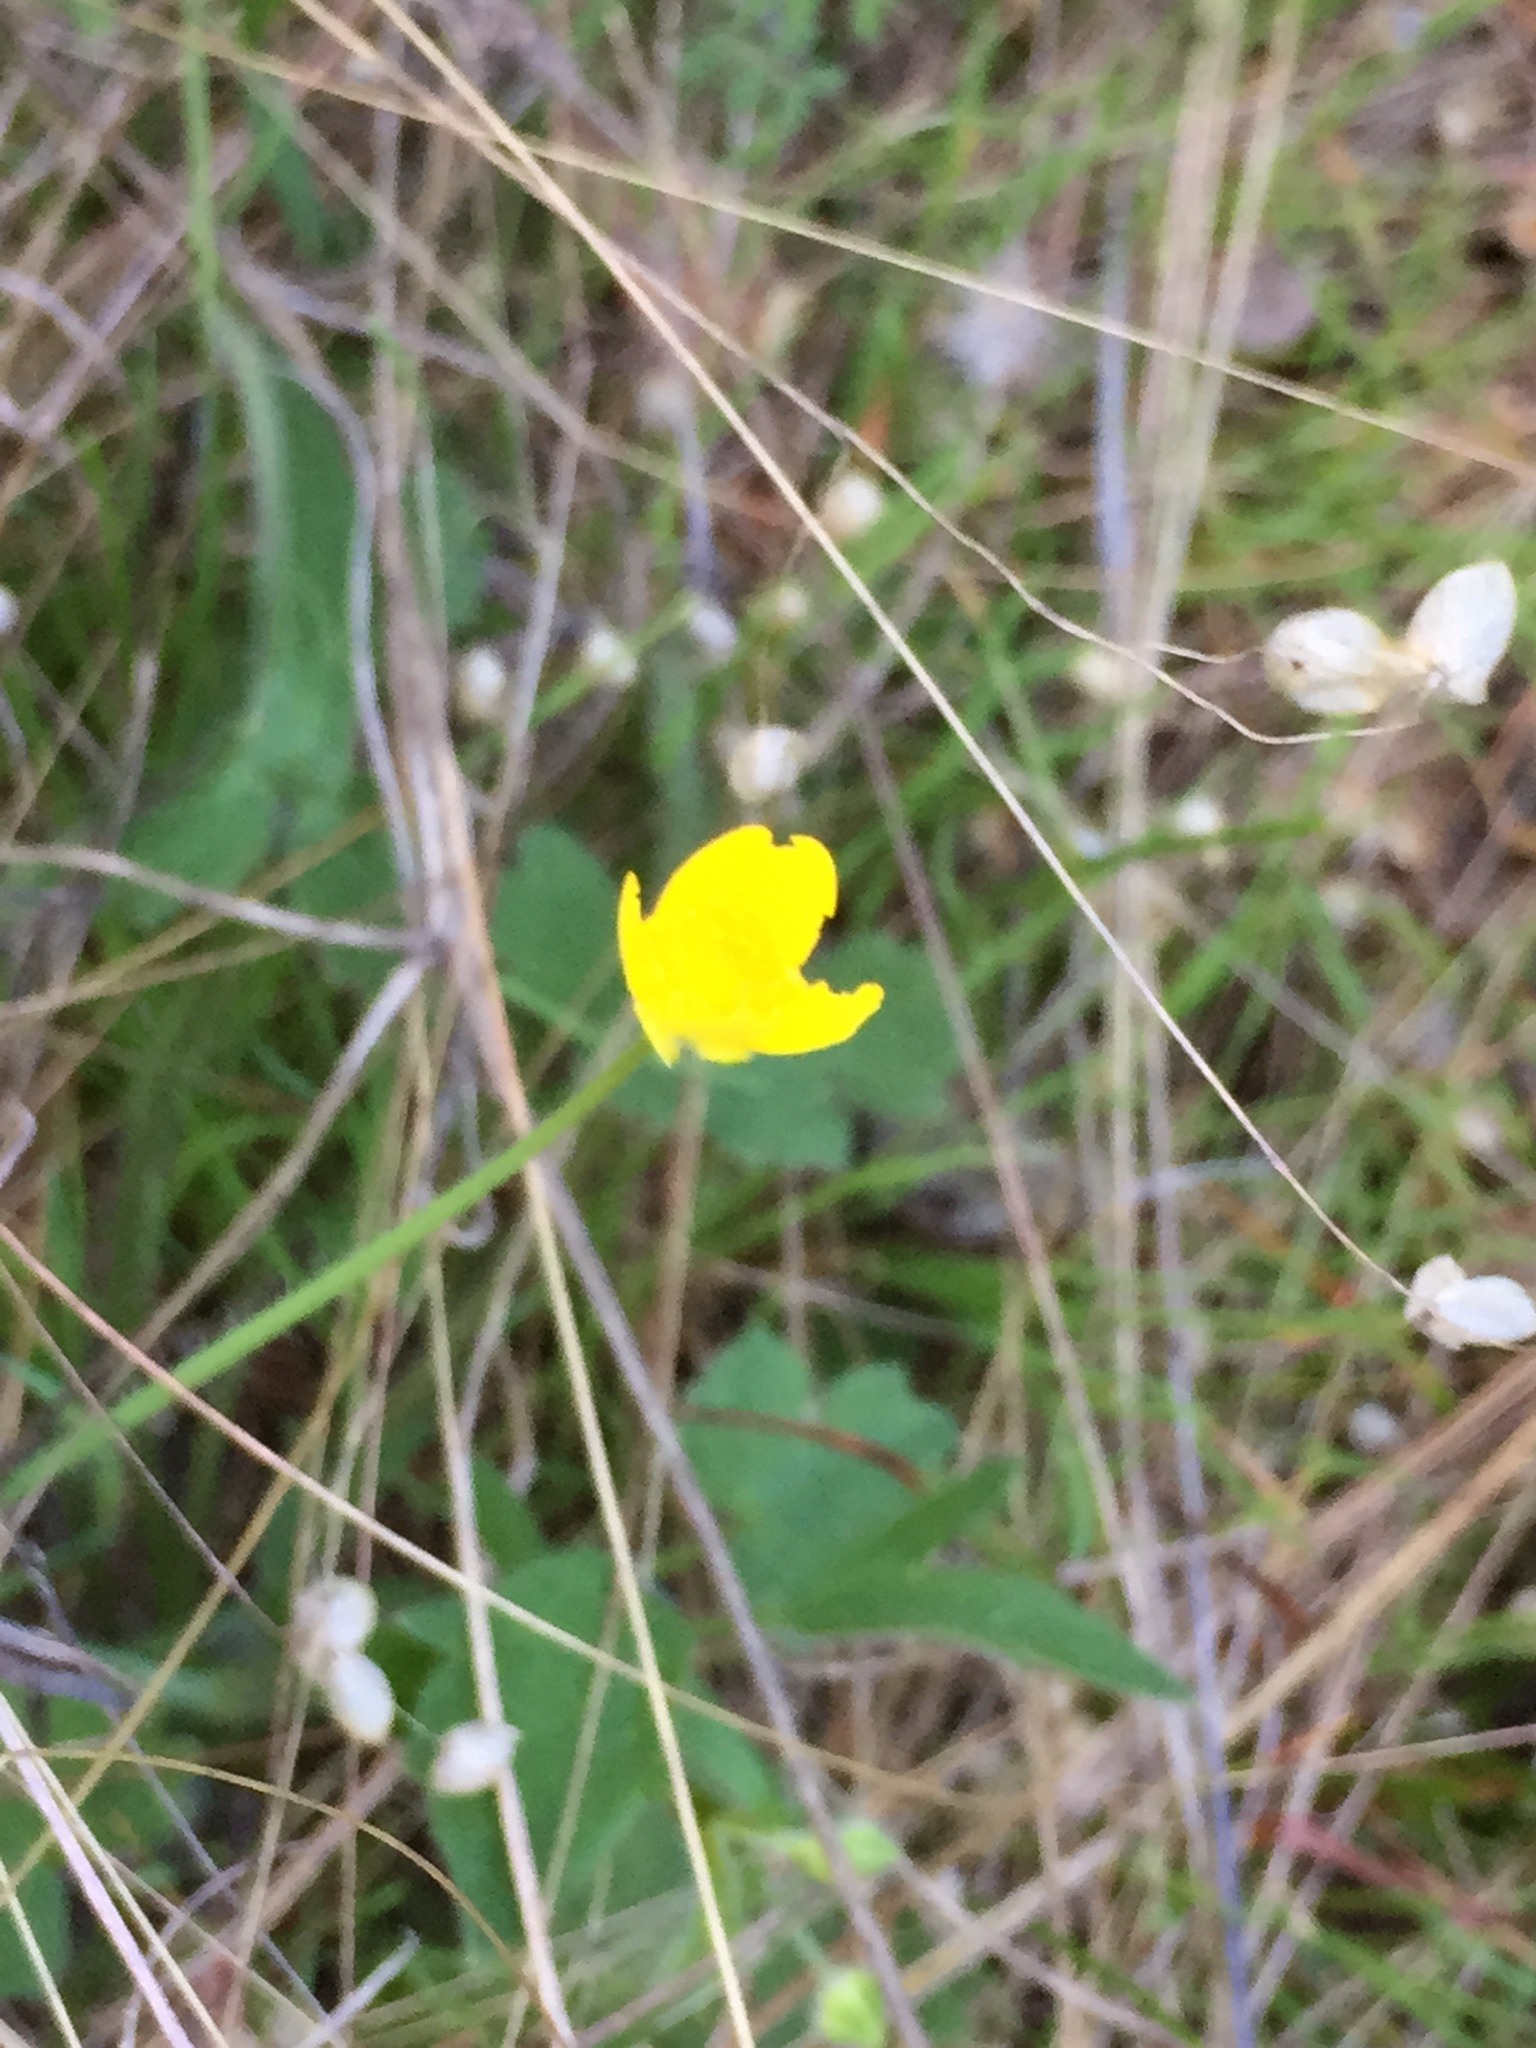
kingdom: Plantae
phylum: Tracheophyta
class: Magnoliopsida
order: Ranunculales
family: Ranunculaceae
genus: Ranunculus
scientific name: Ranunculus occidentalis
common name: Western buttercup
